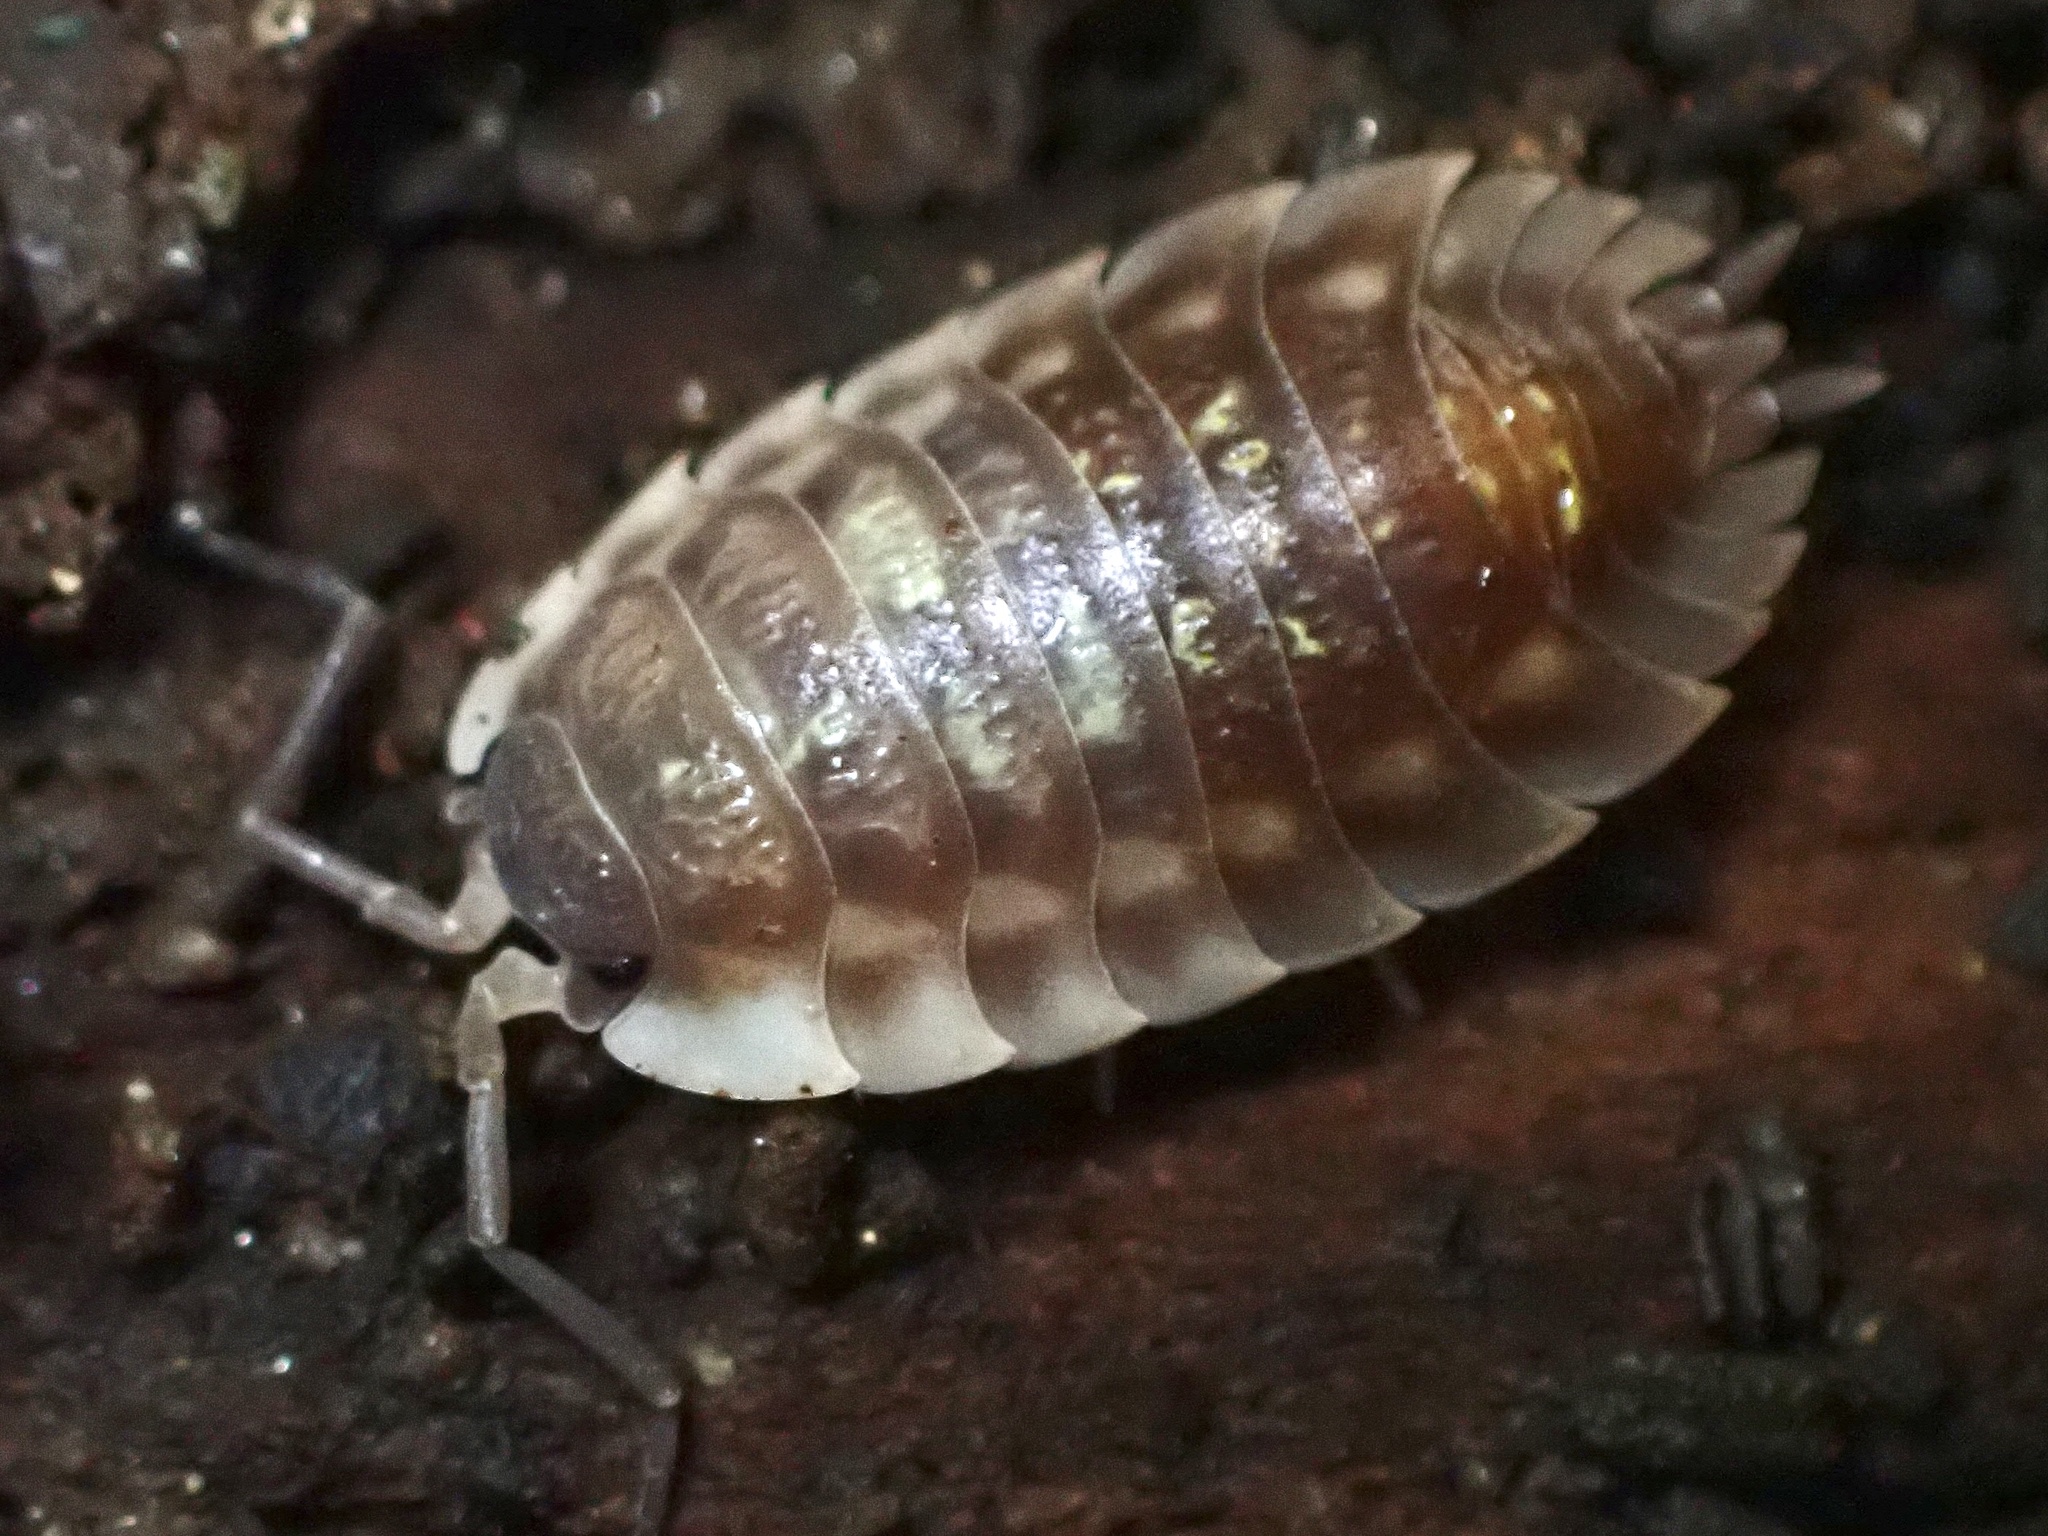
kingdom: Animalia
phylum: Arthropoda
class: Malacostraca
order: Isopoda
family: Oniscidae
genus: Oniscus
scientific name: Oniscus asellus
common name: Common shiny woodlouse
